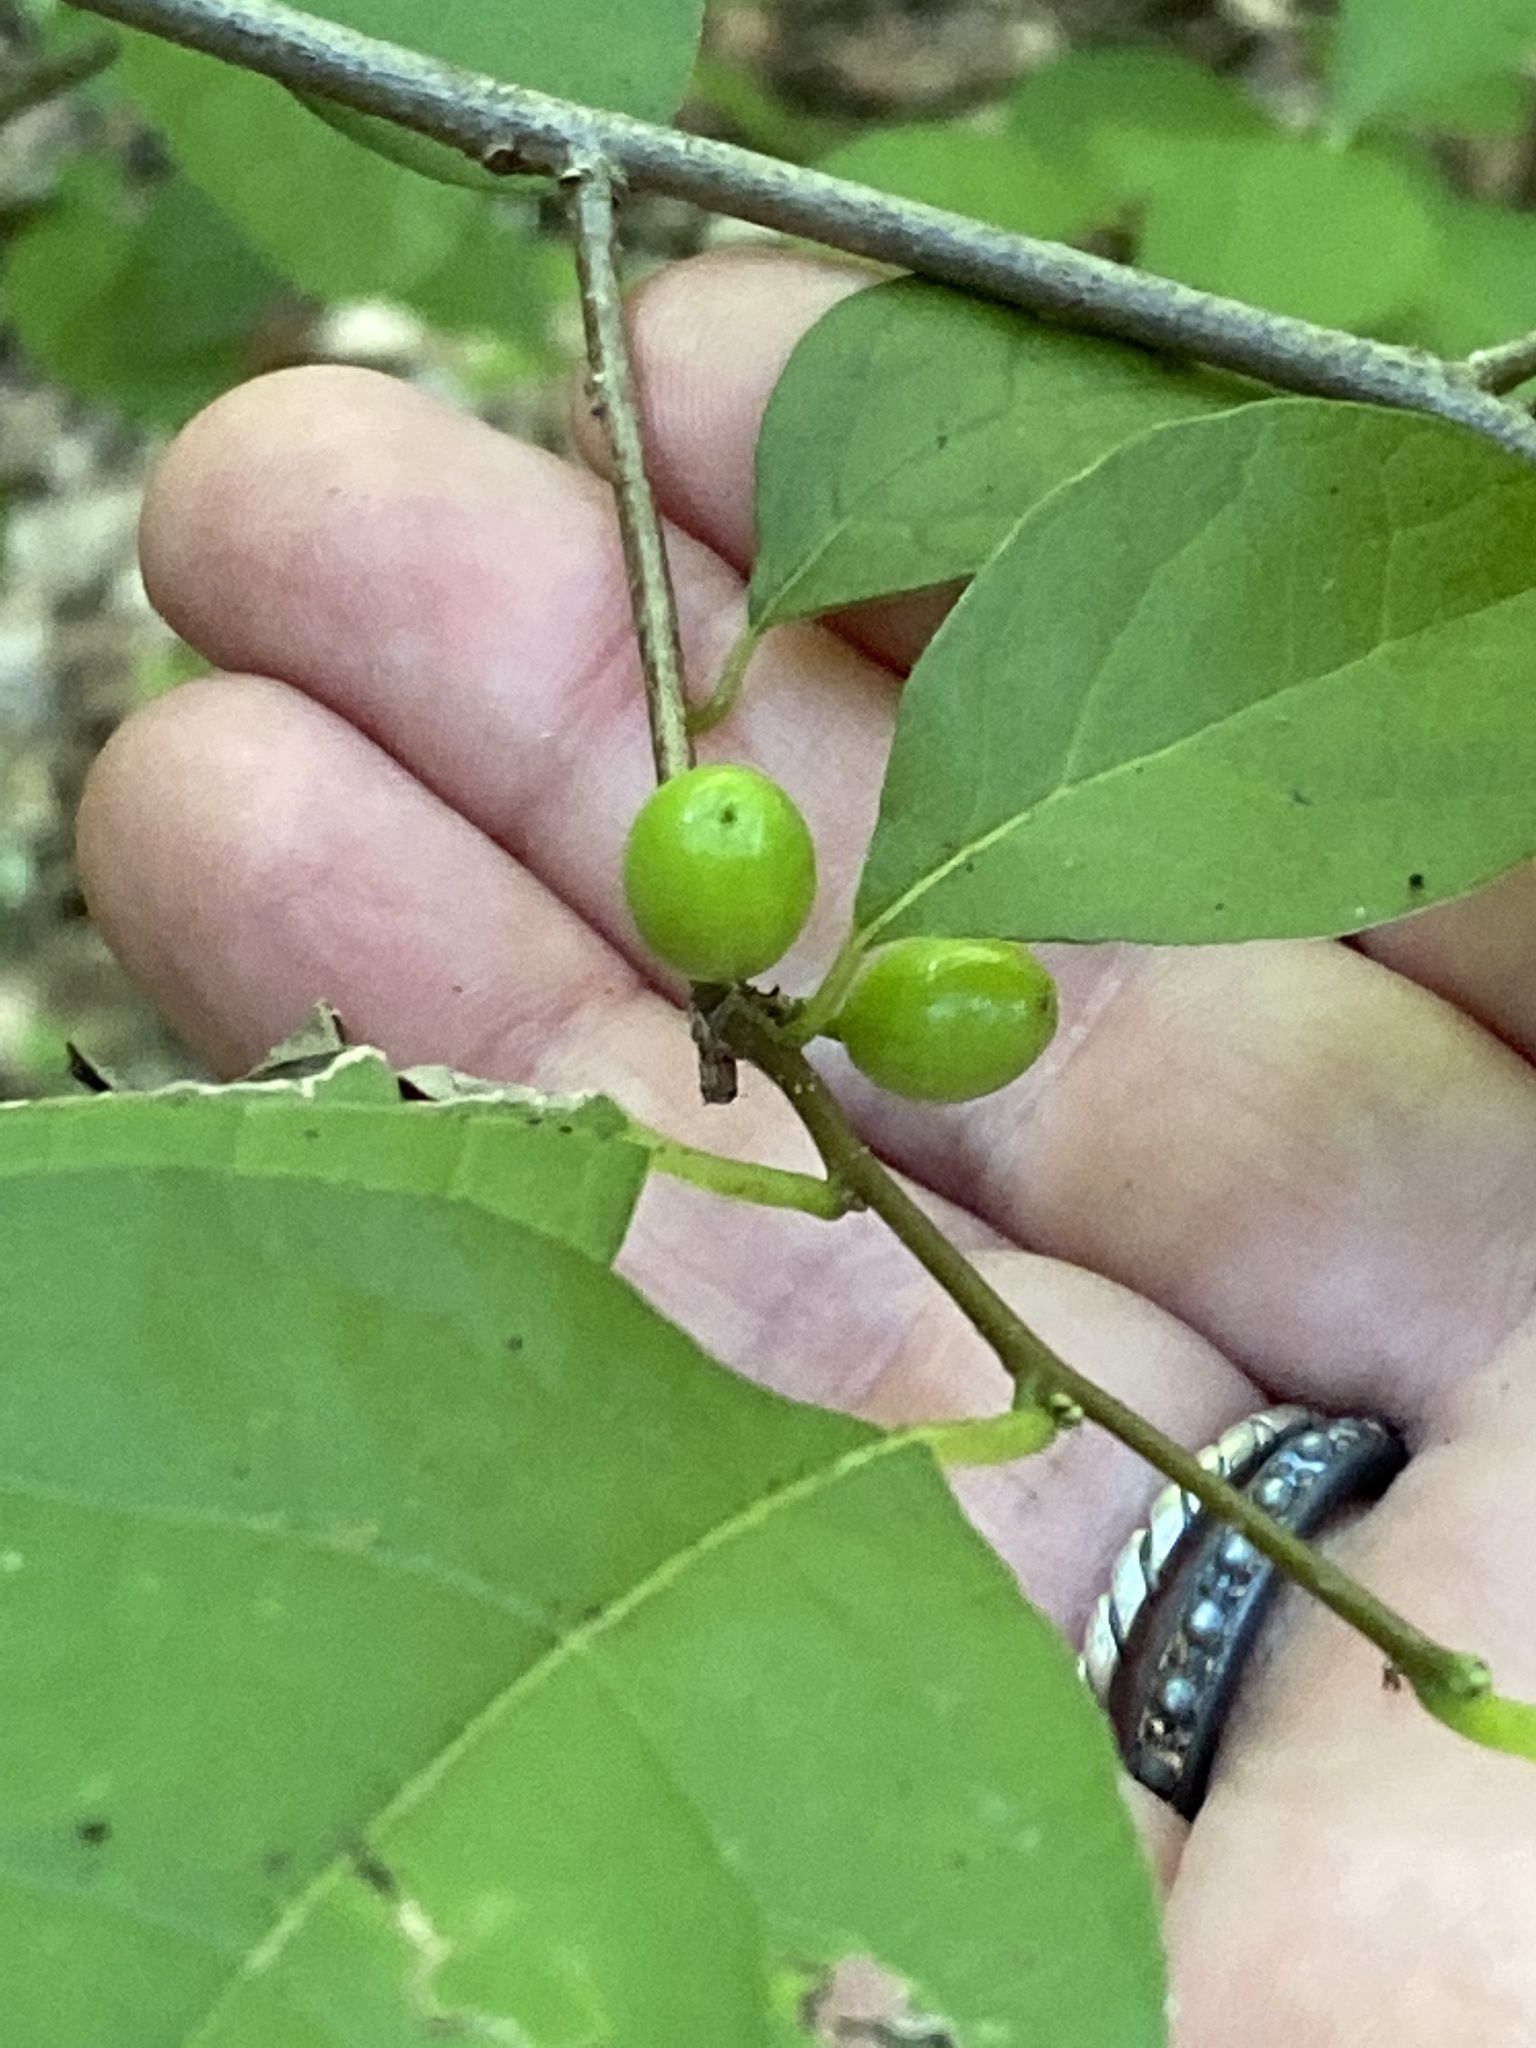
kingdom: Plantae
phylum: Tracheophyta
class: Magnoliopsida
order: Laurales
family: Lauraceae
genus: Lindera
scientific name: Lindera benzoin
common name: Spicebush
